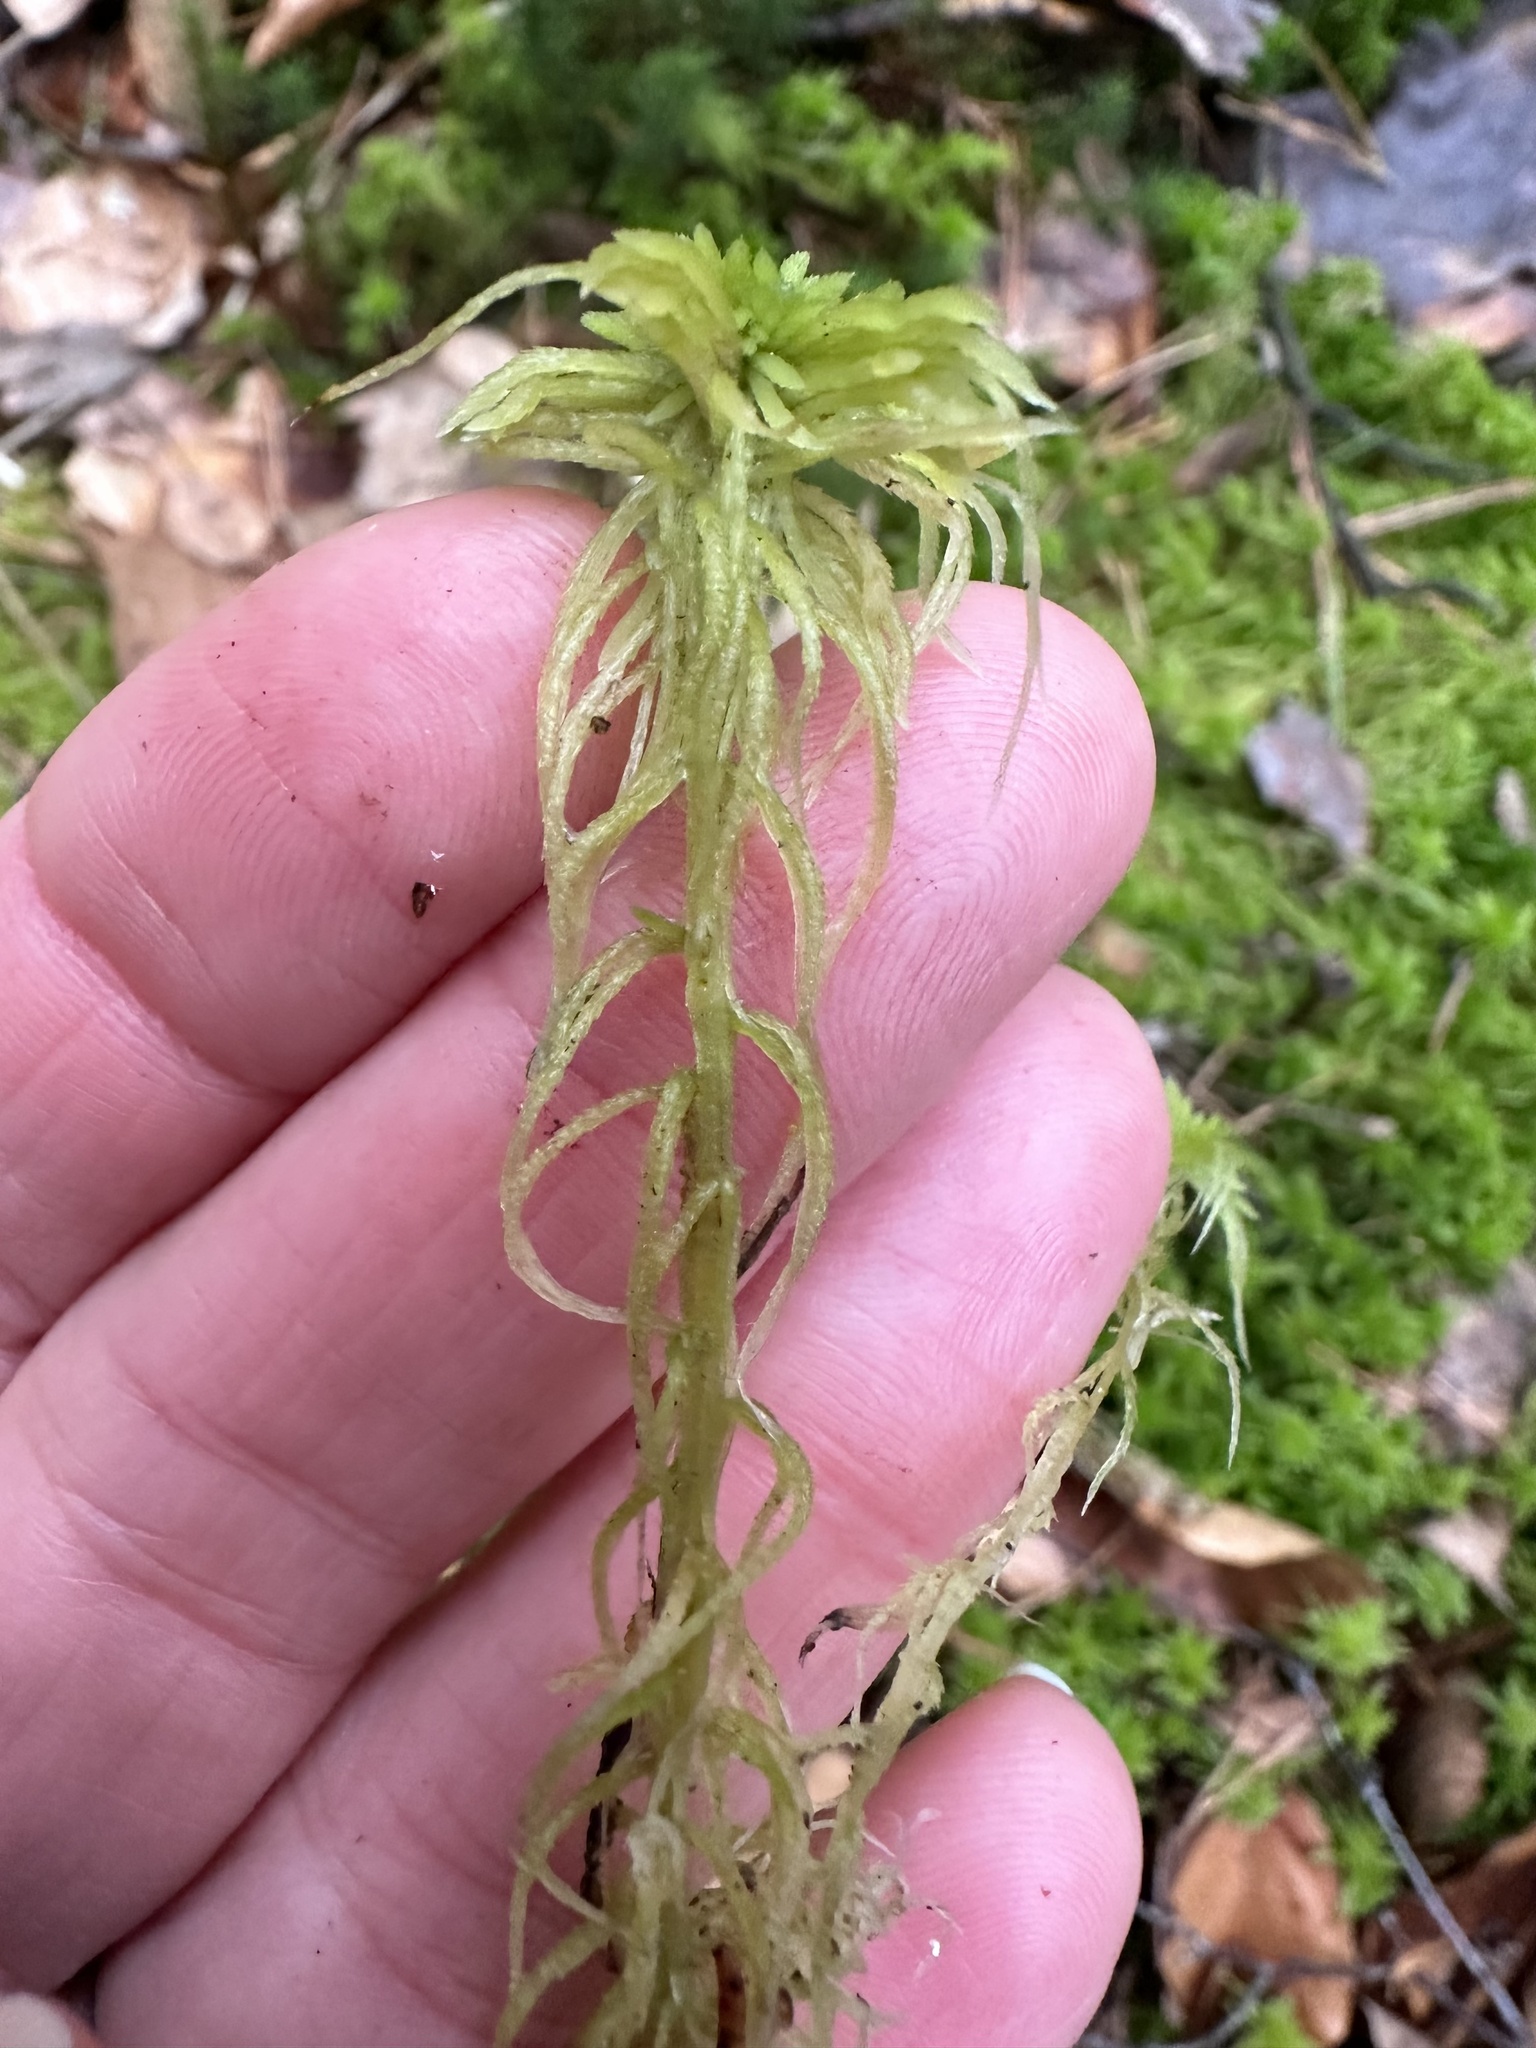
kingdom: Plantae
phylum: Bryophyta
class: Sphagnopsida
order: Sphagnales
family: Sphagnaceae
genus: Sphagnum
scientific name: Sphagnum fimbriatum
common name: Fringed peat moss
